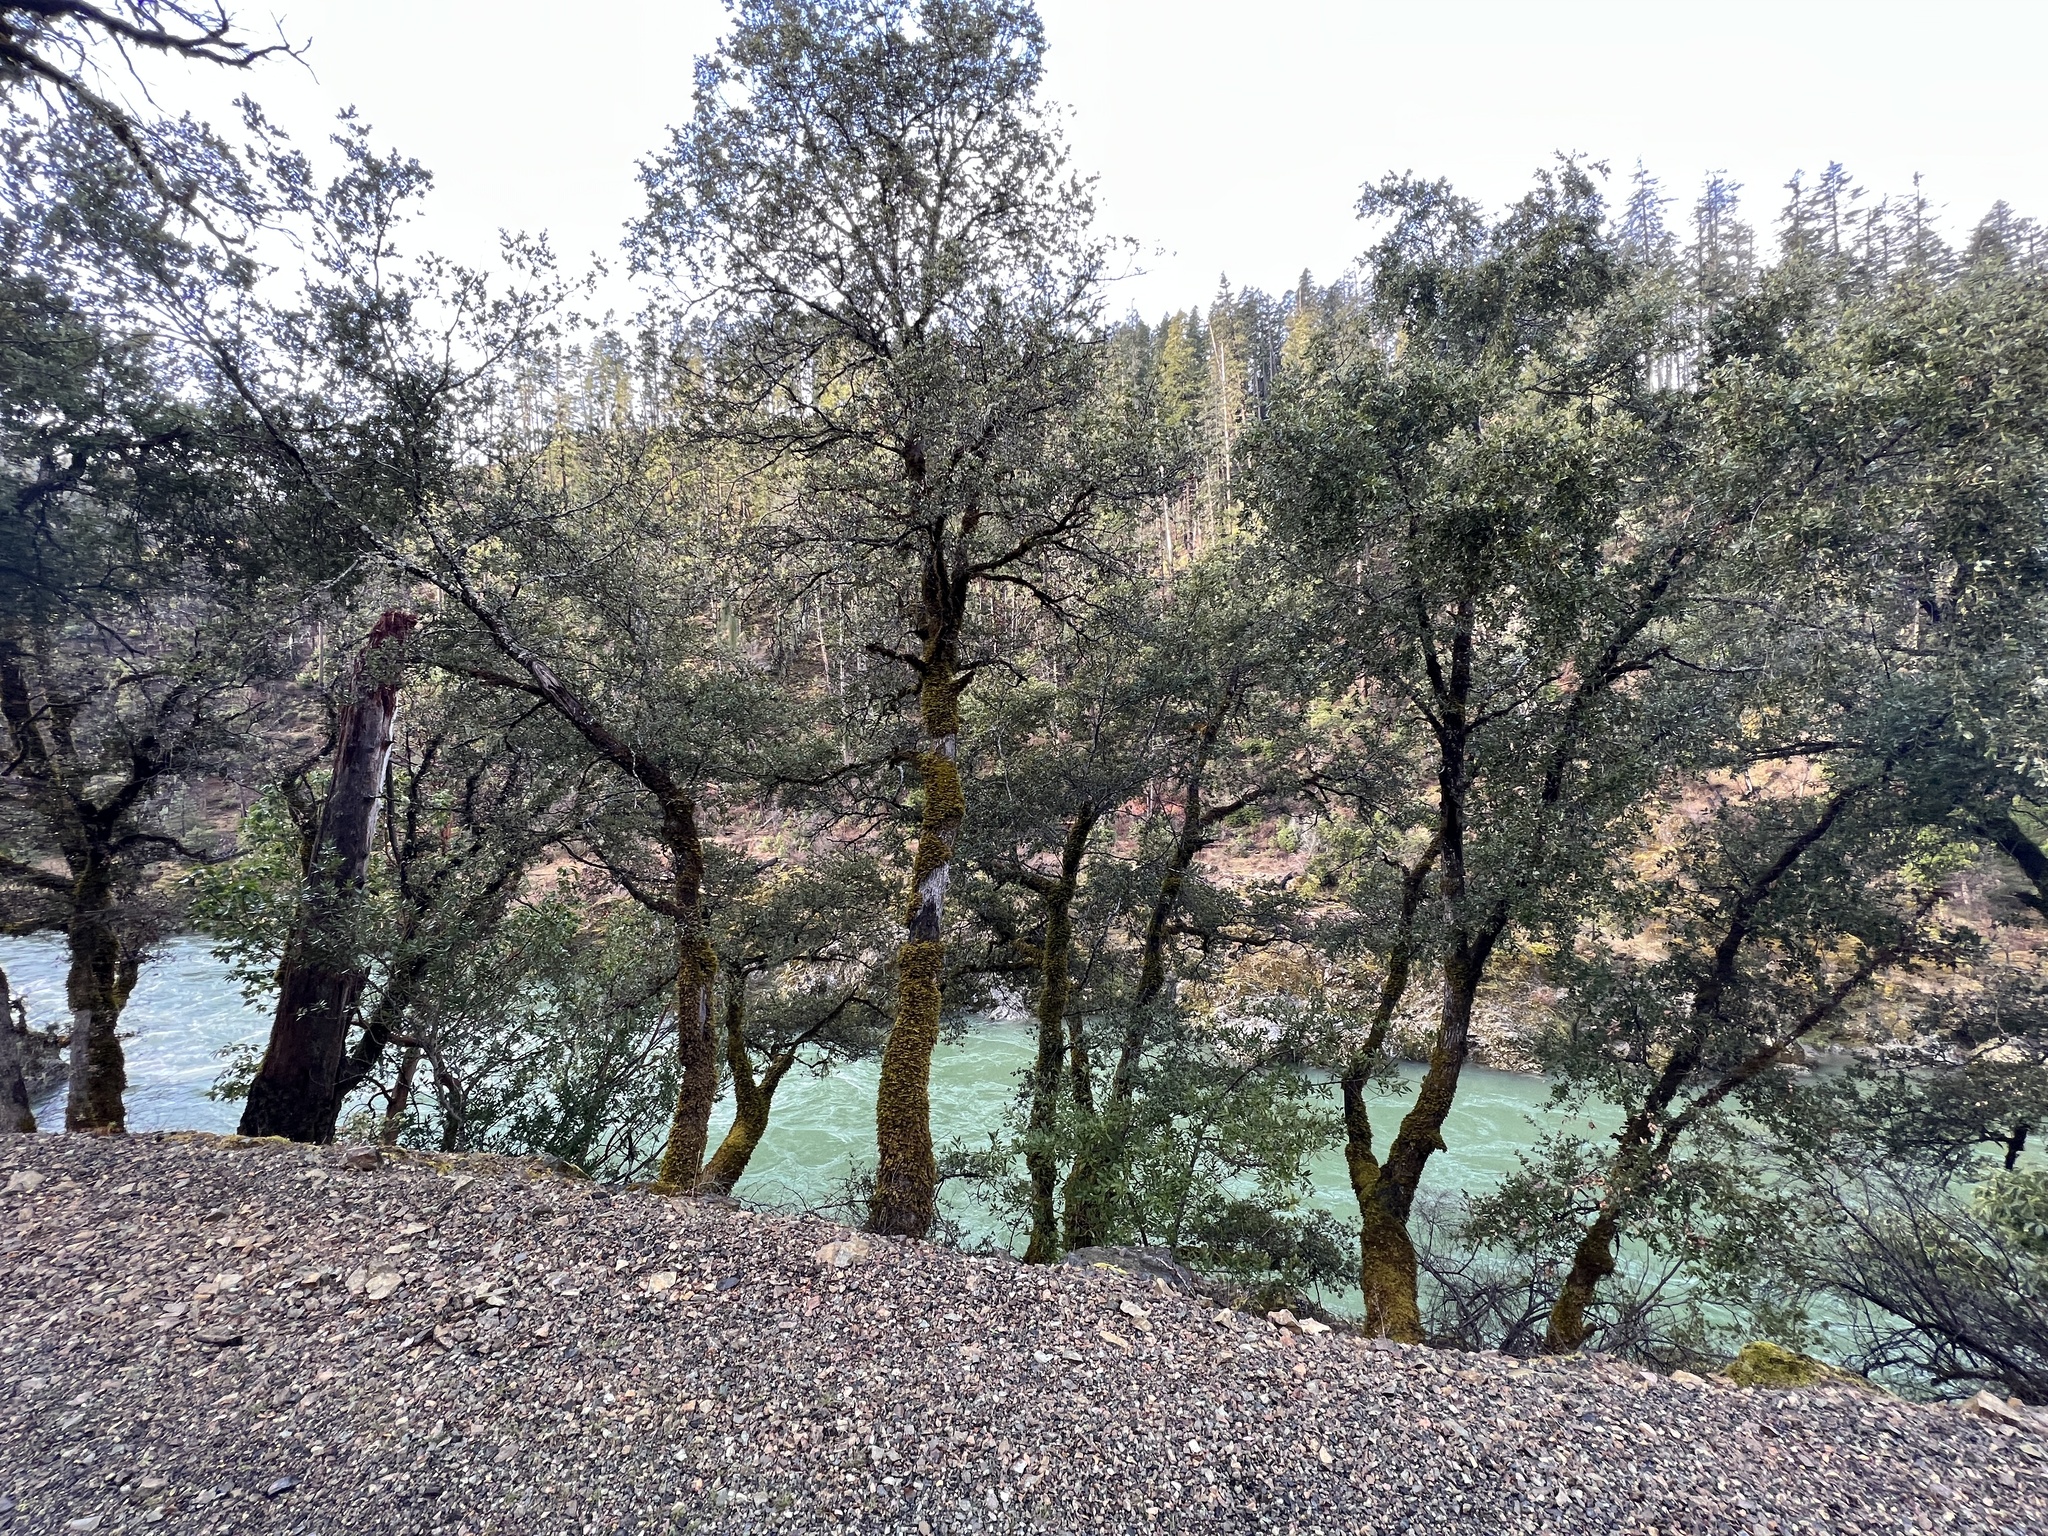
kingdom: Plantae
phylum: Tracheophyta
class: Magnoliopsida
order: Fagales
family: Fagaceae
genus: Quercus
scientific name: Quercus chrysolepis
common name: Canyon live oak
